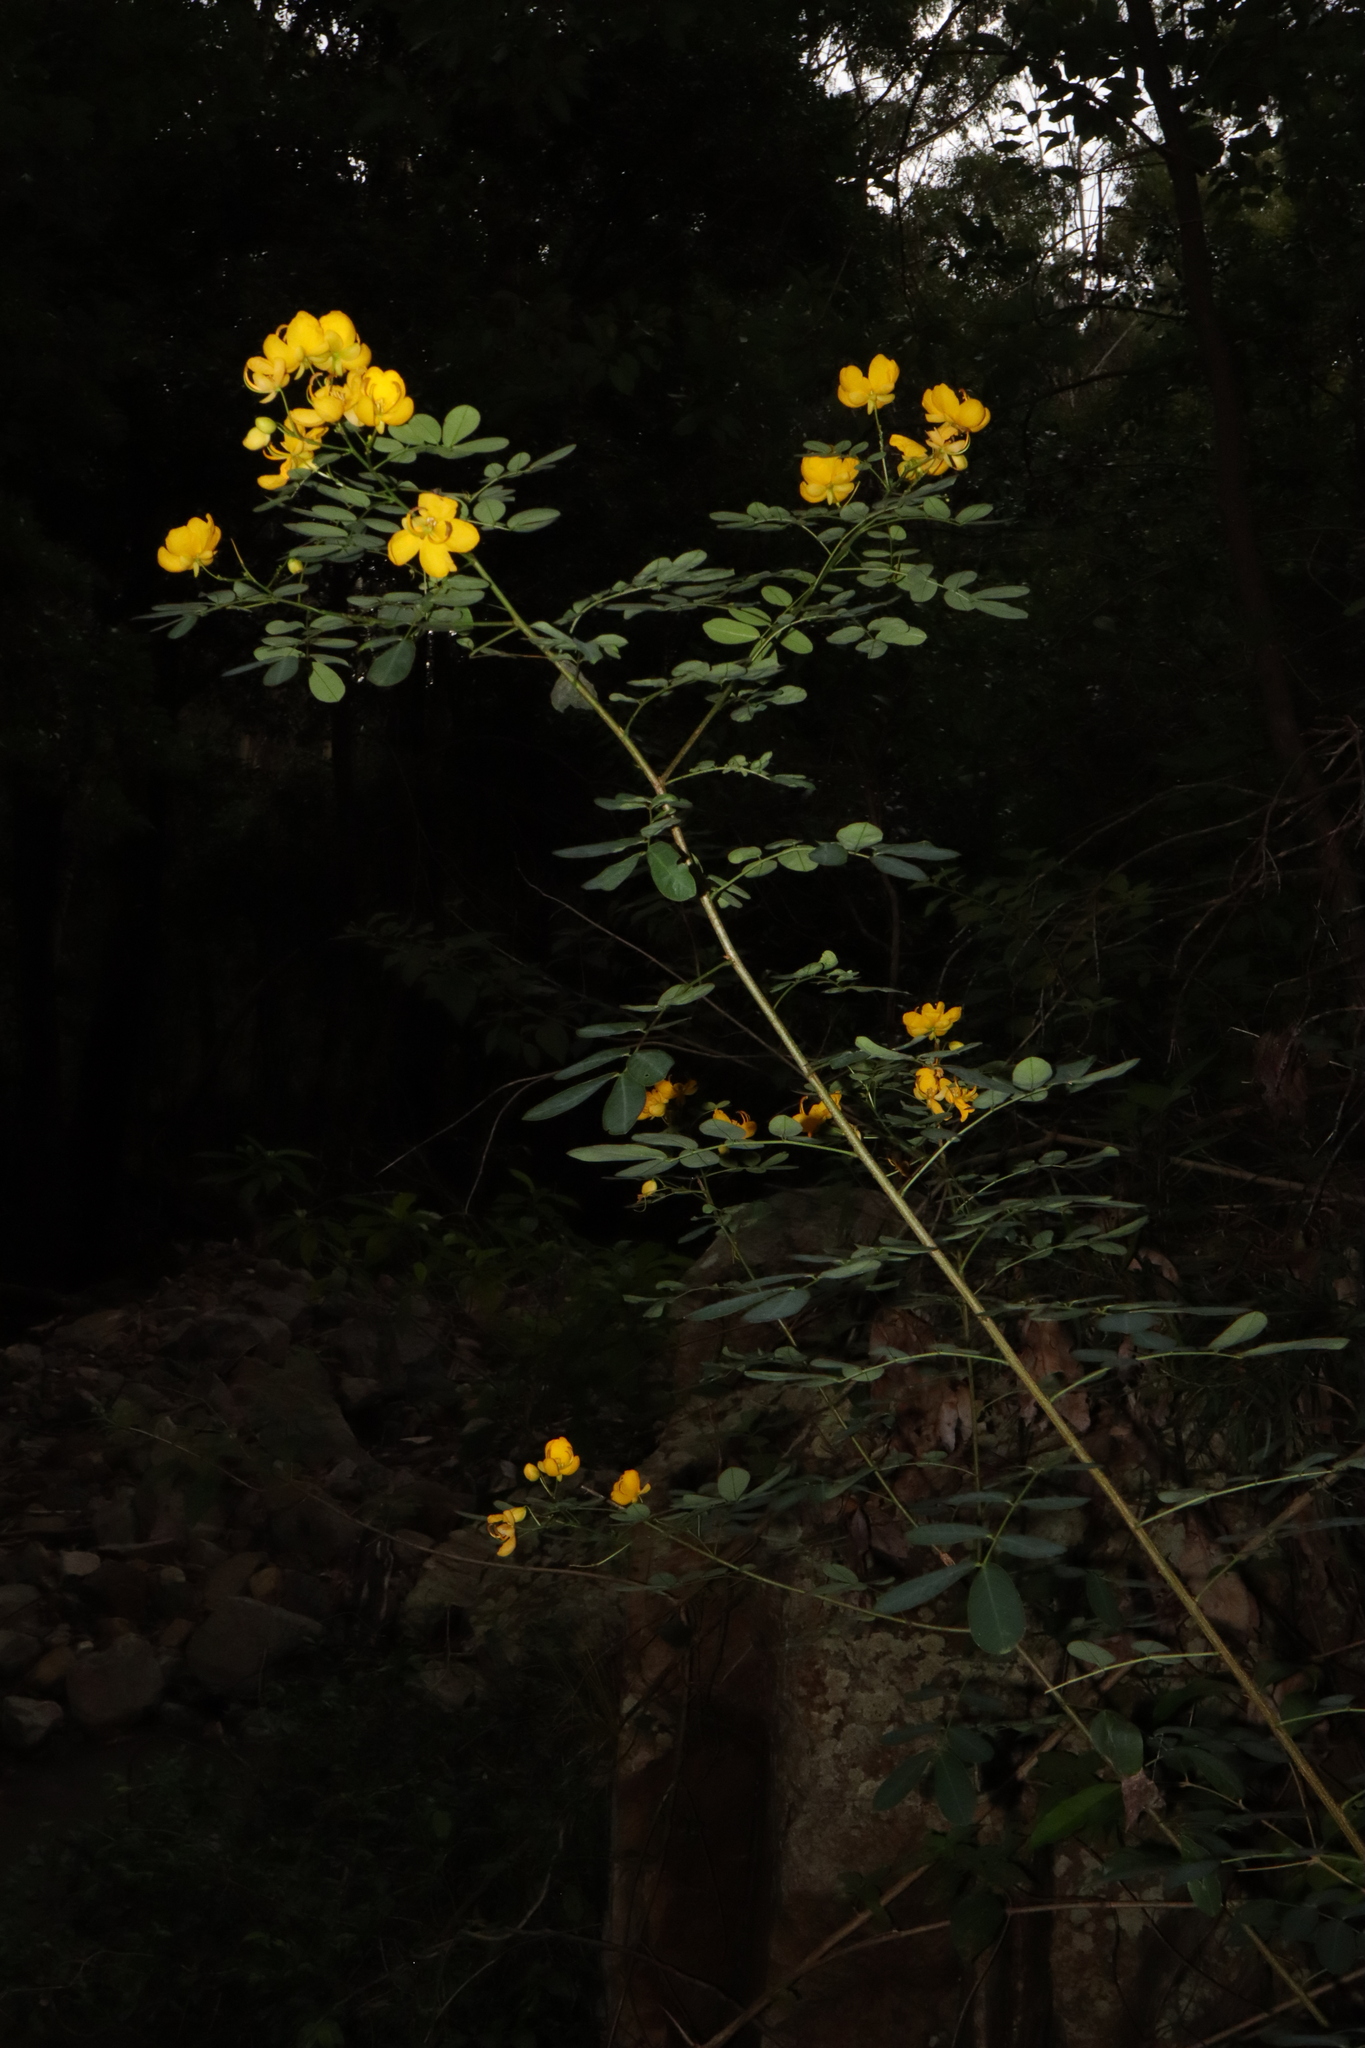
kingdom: Plantae
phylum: Tracheophyta
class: Magnoliopsida
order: Fabales
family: Fabaceae
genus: Senna
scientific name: Senna pendula
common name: Easter cassia
